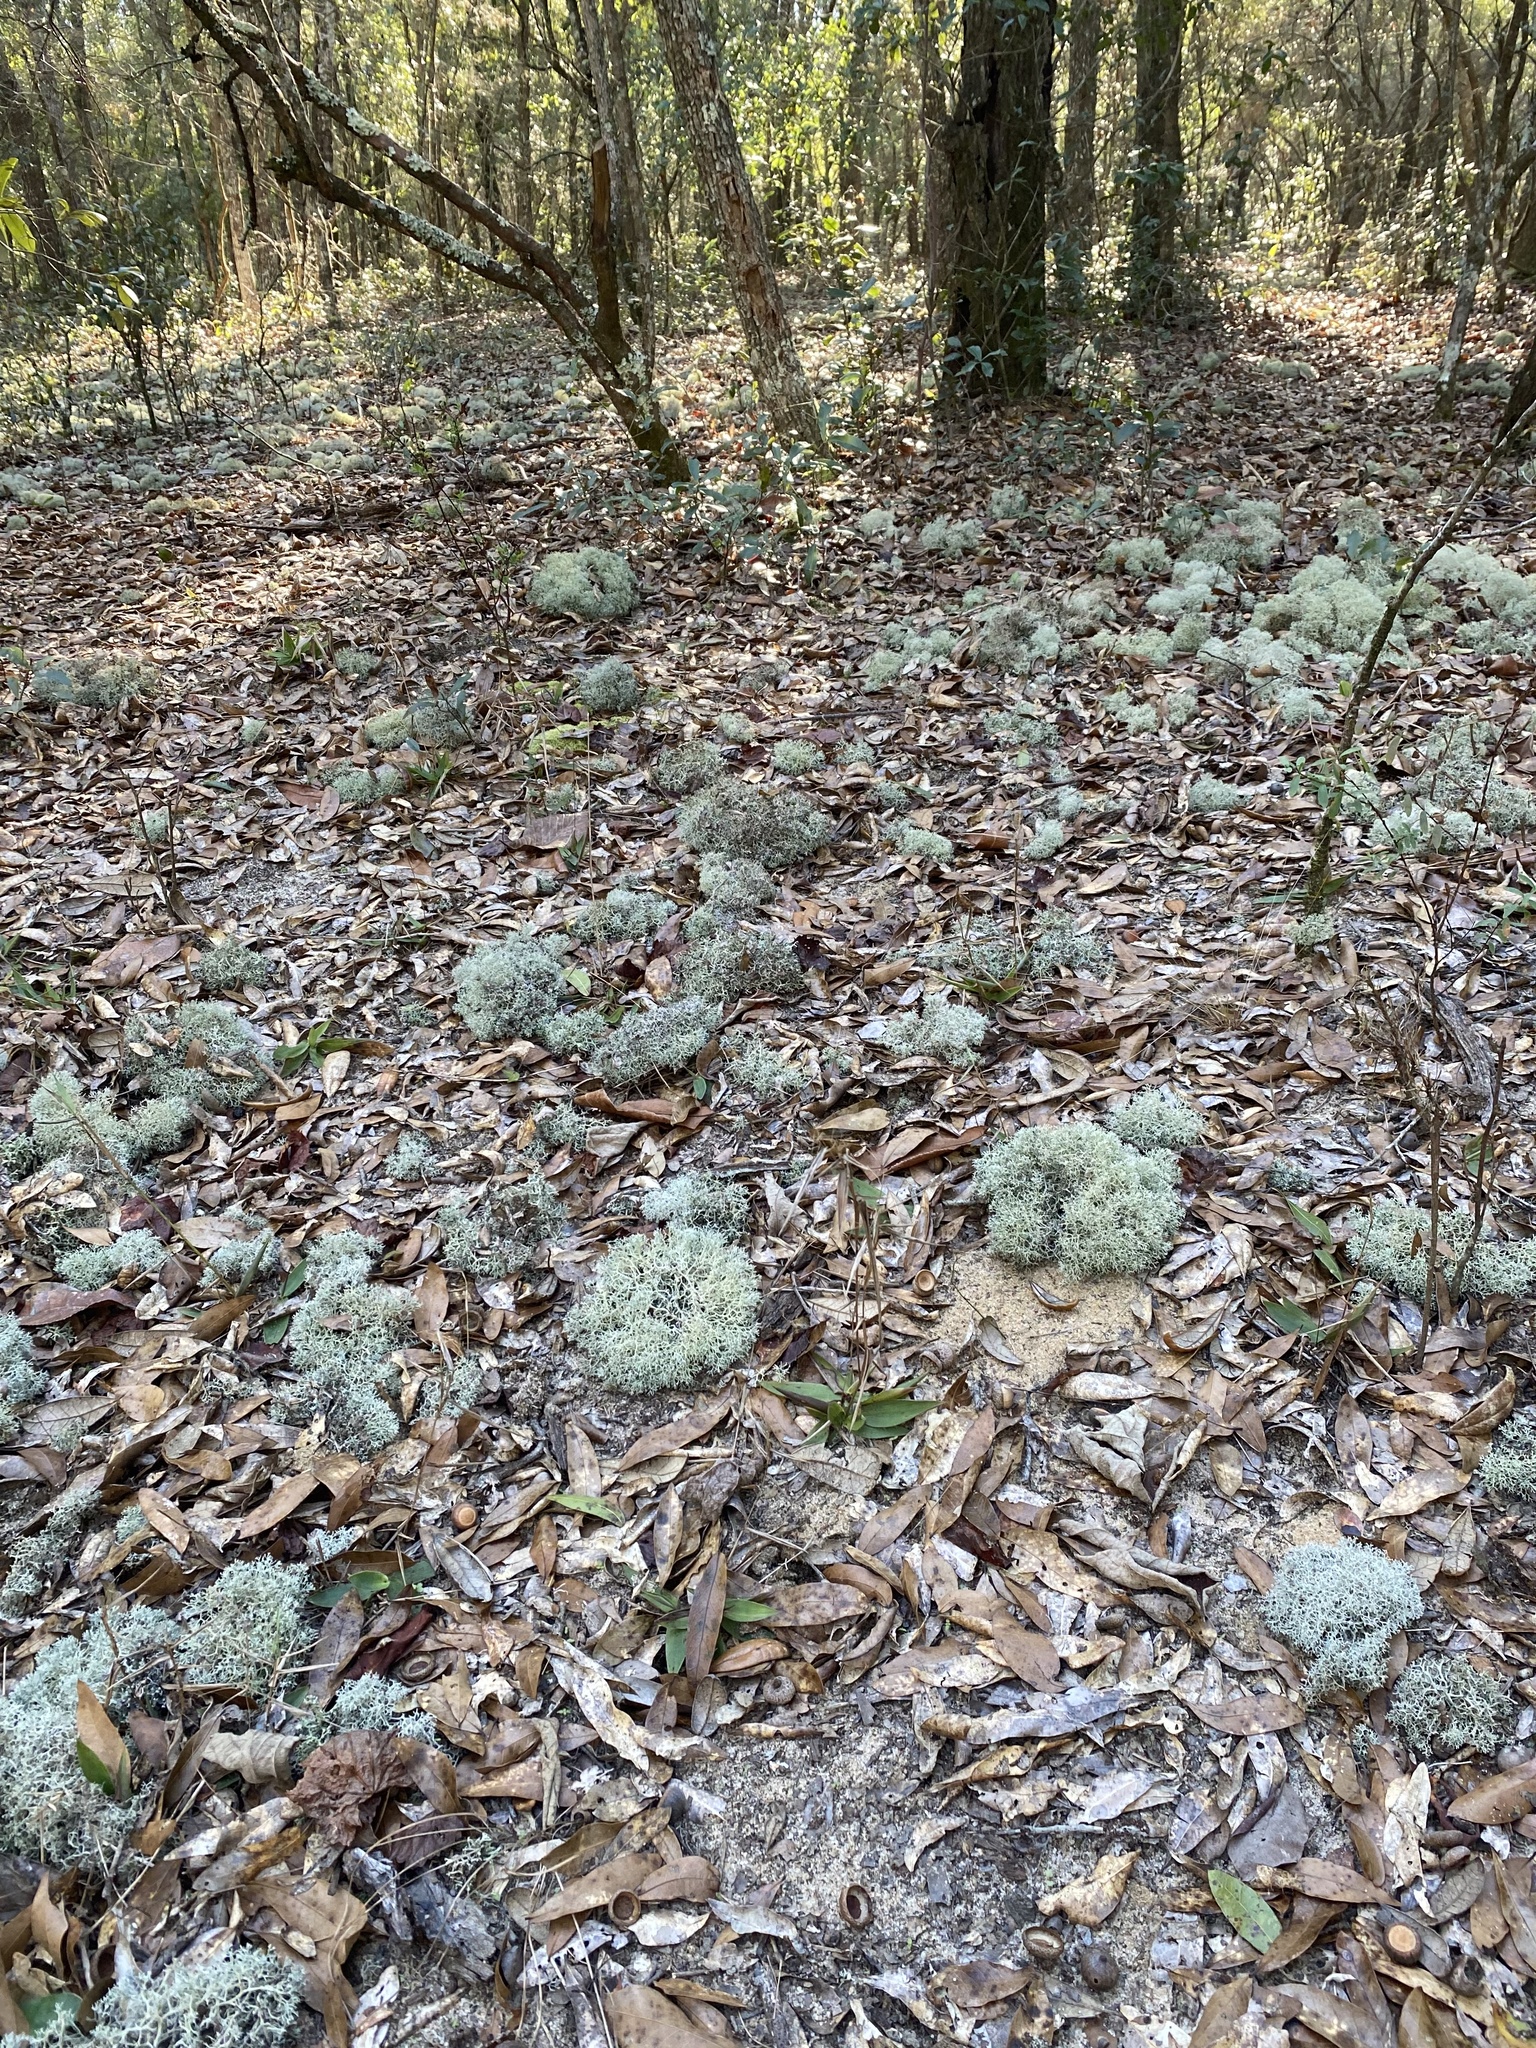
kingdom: Fungi
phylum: Ascomycota
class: Lecanoromycetes
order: Lecanorales
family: Cladoniaceae
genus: Cladonia
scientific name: Cladonia furcata
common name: Many-forked cladonia
